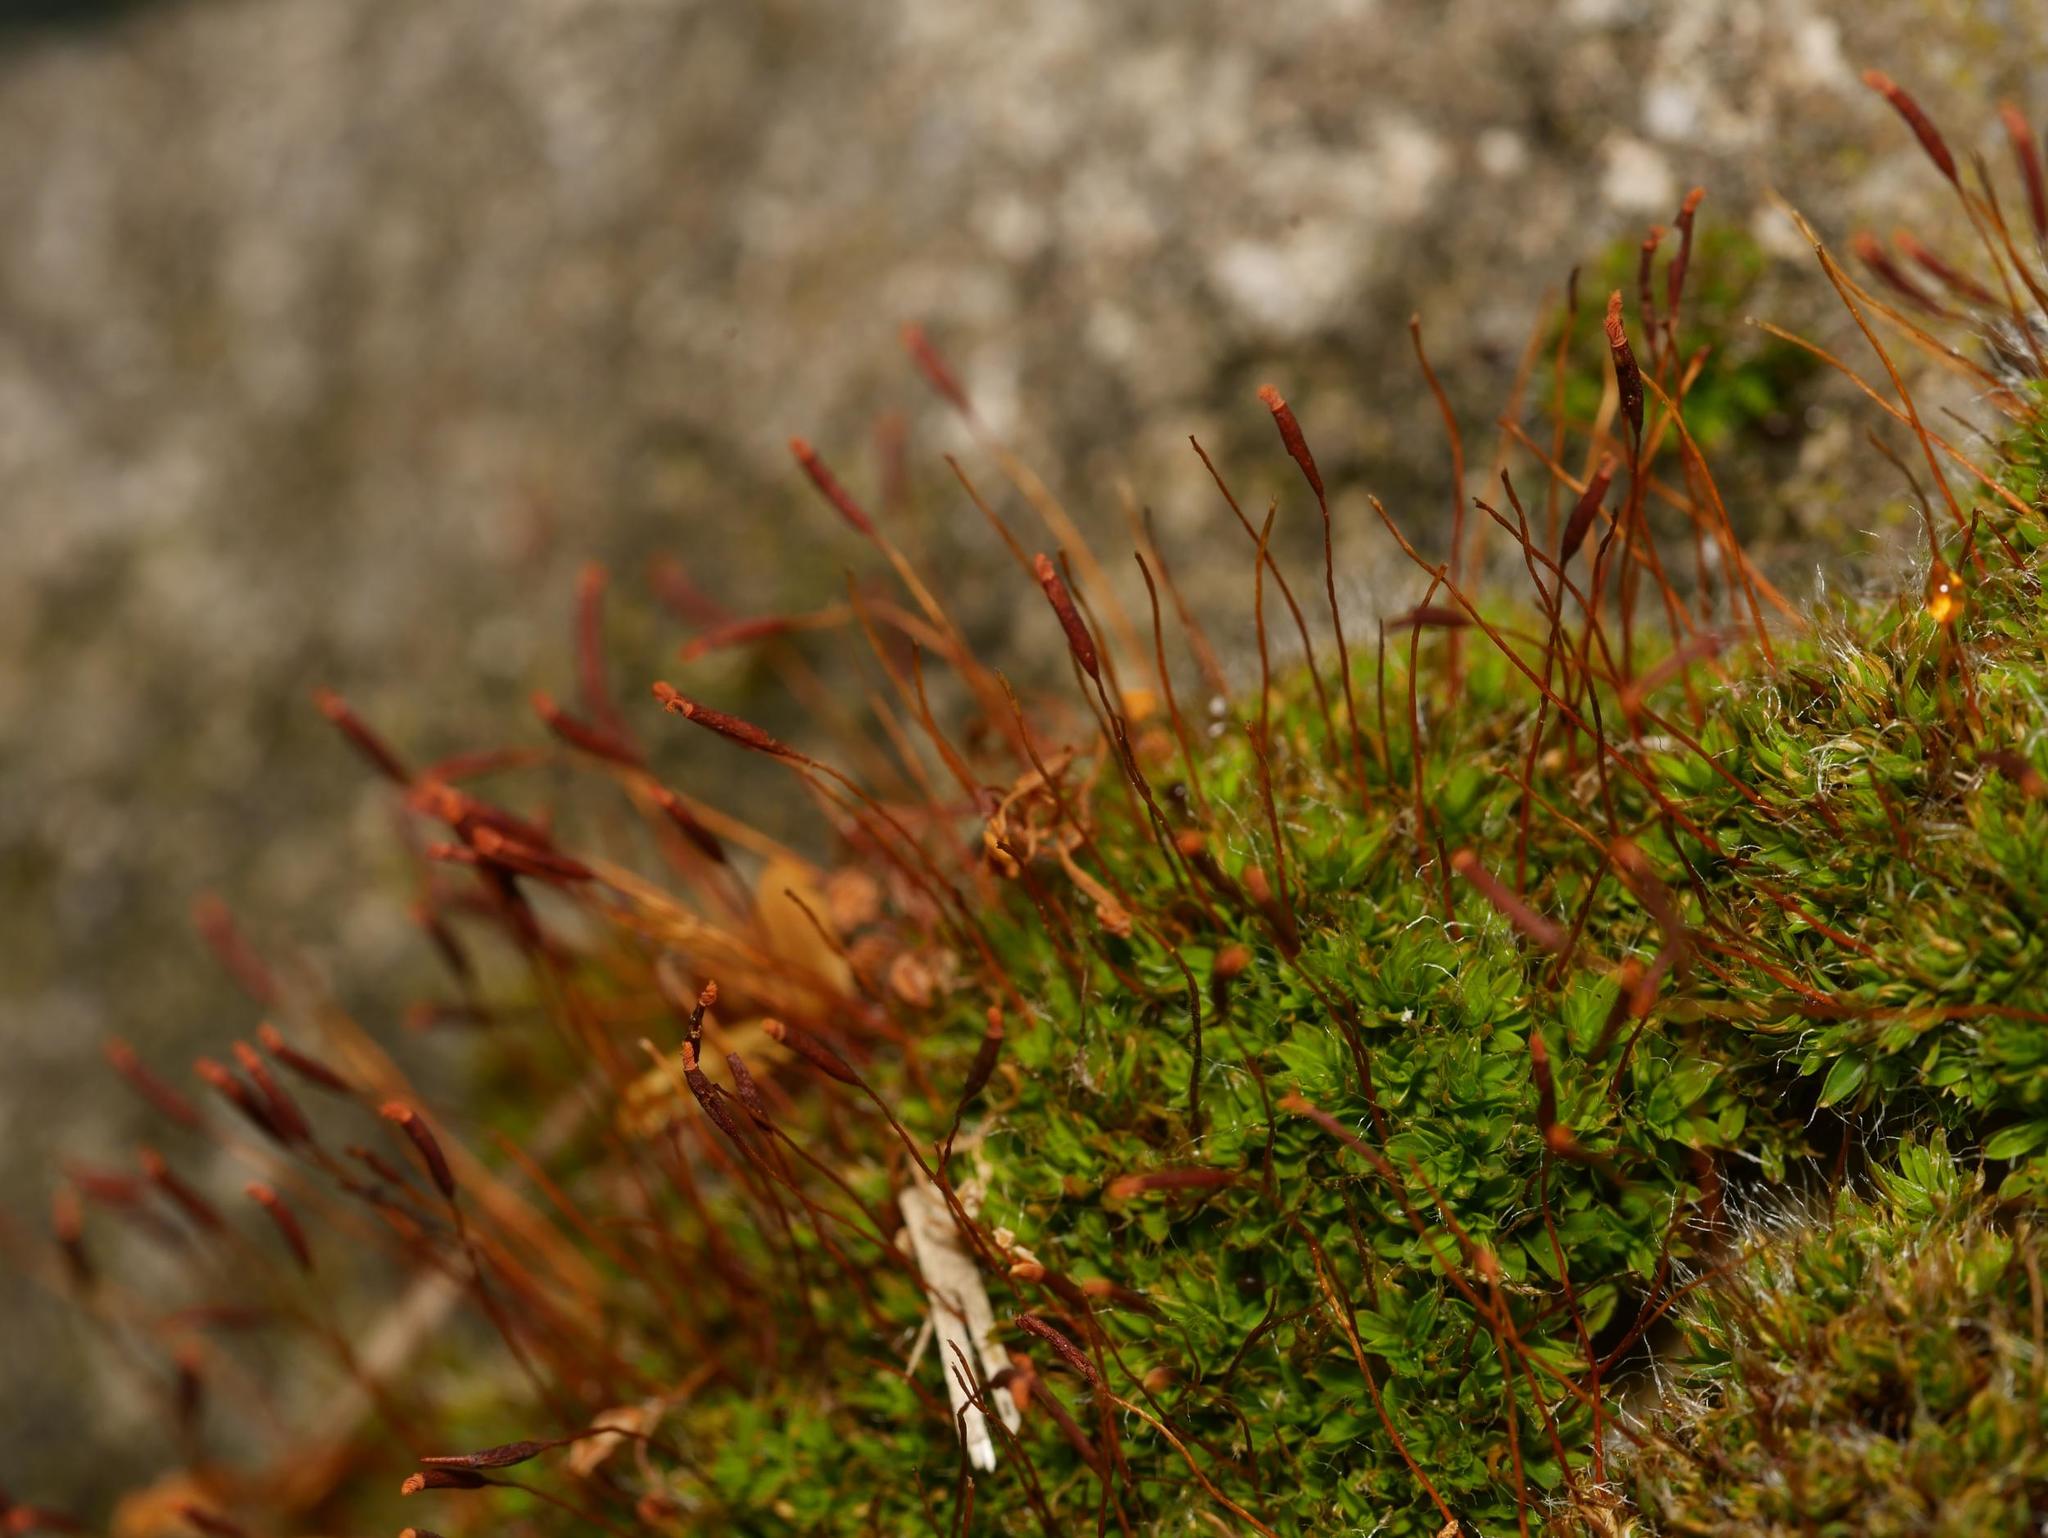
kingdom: Plantae
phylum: Bryophyta
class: Bryopsida
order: Pottiales
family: Pottiaceae
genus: Tortula
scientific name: Tortula muralis
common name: Wall screw-moss
